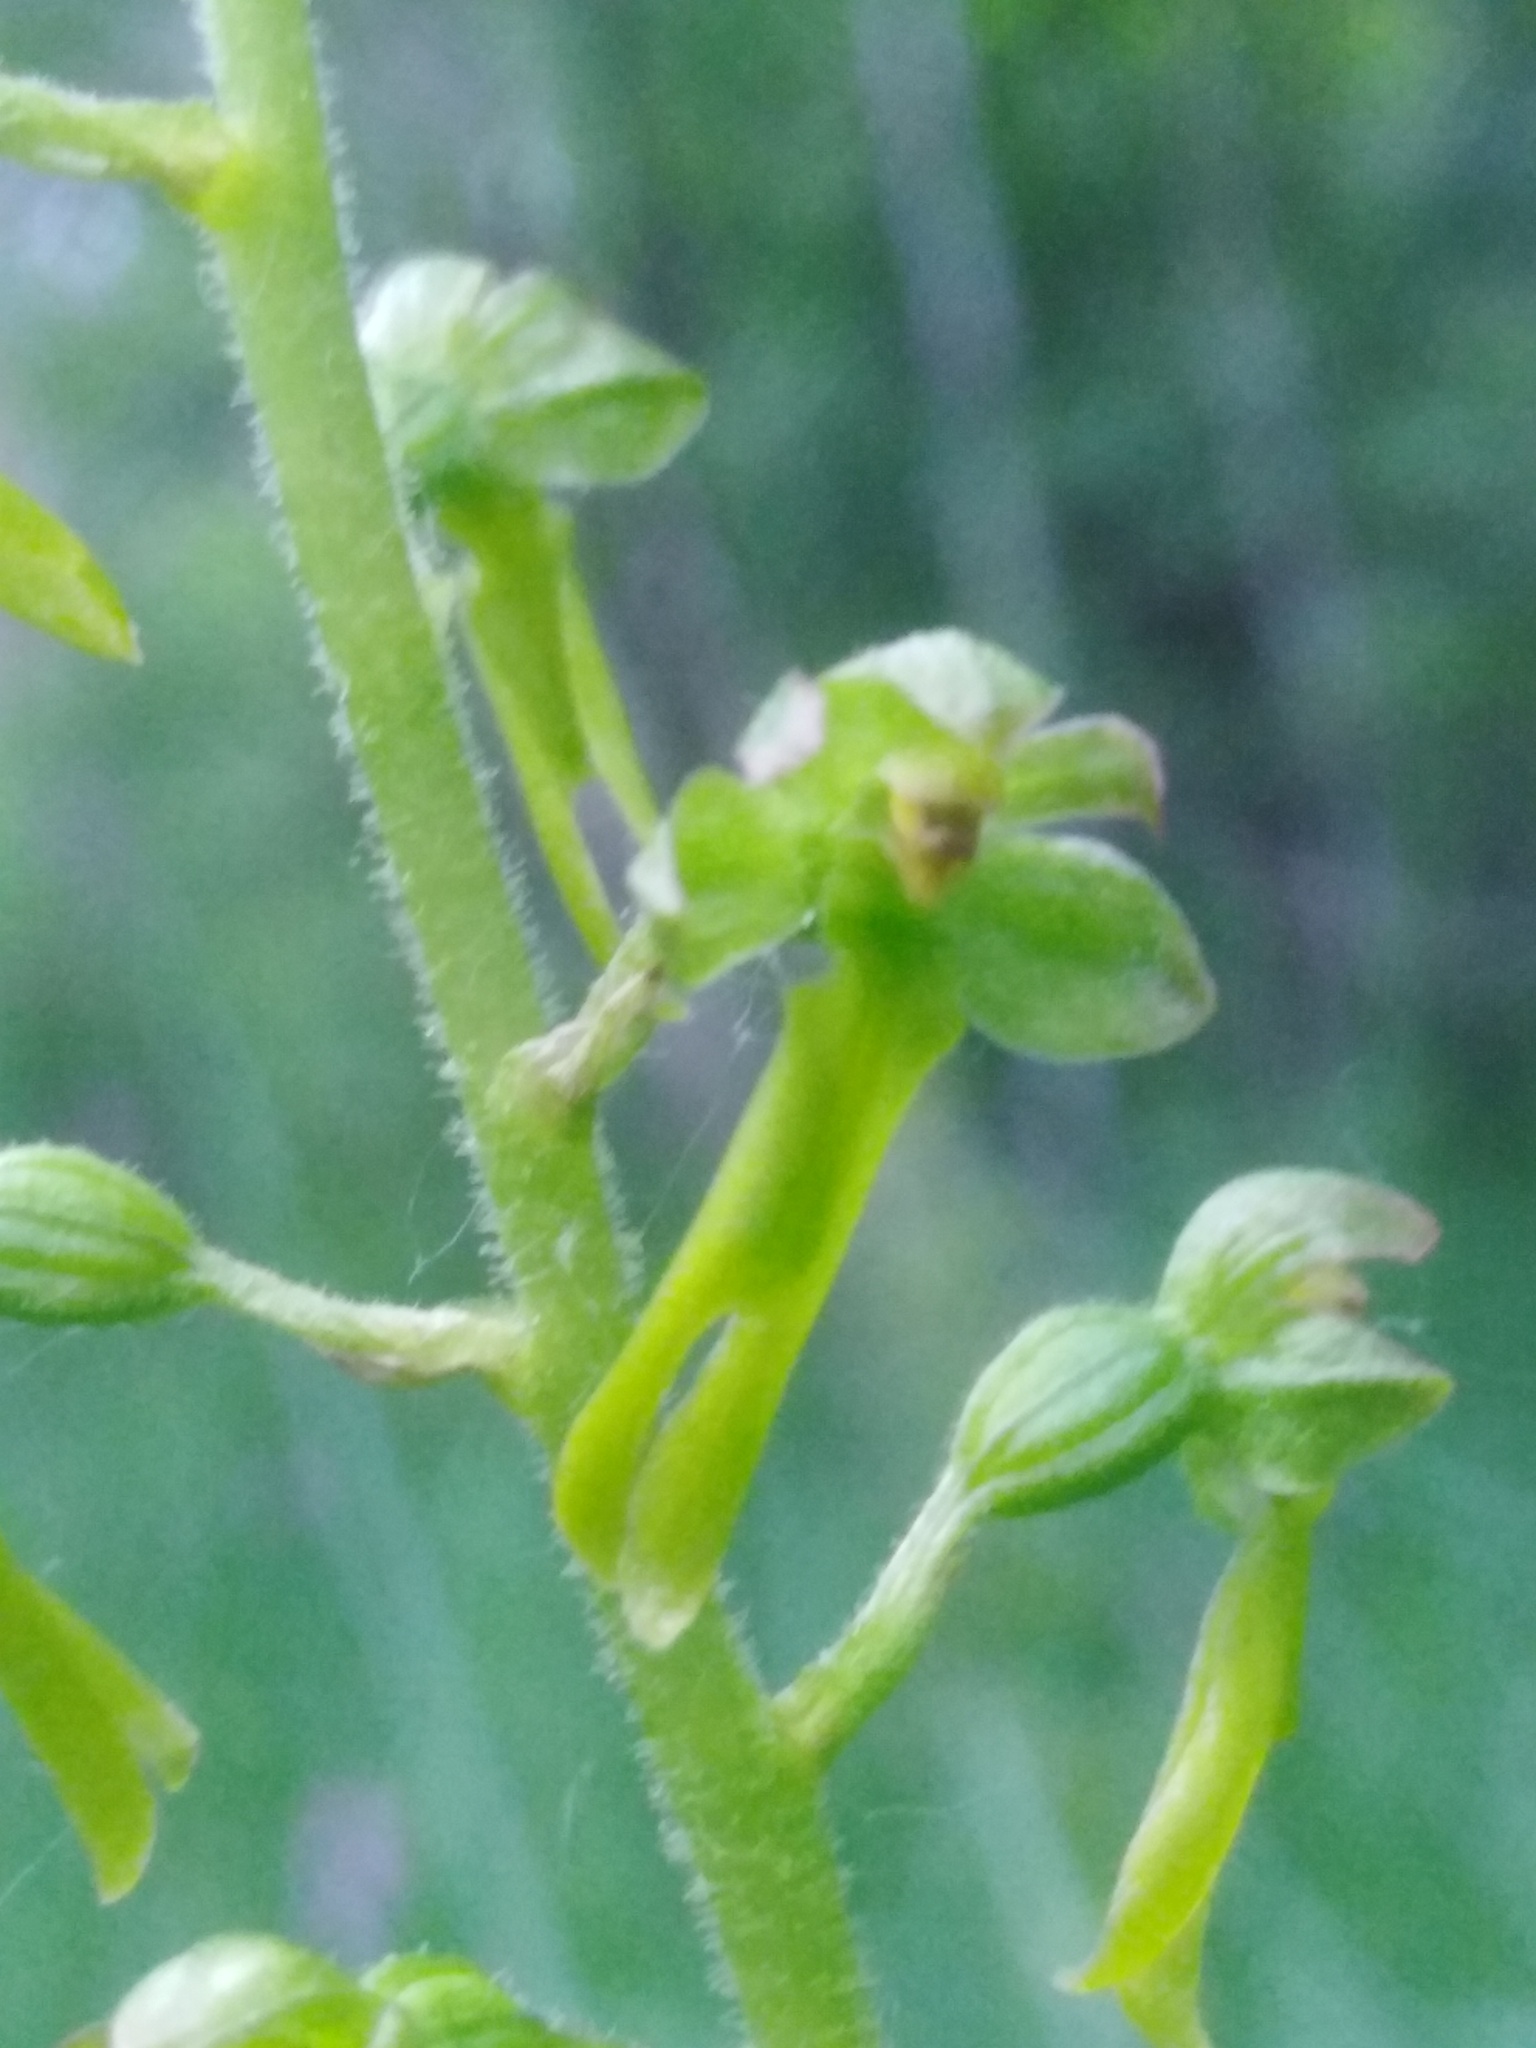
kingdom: Plantae
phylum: Tracheophyta
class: Liliopsida
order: Asparagales
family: Orchidaceae
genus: Neottia
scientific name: Neottia ovata
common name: Common twayblade
